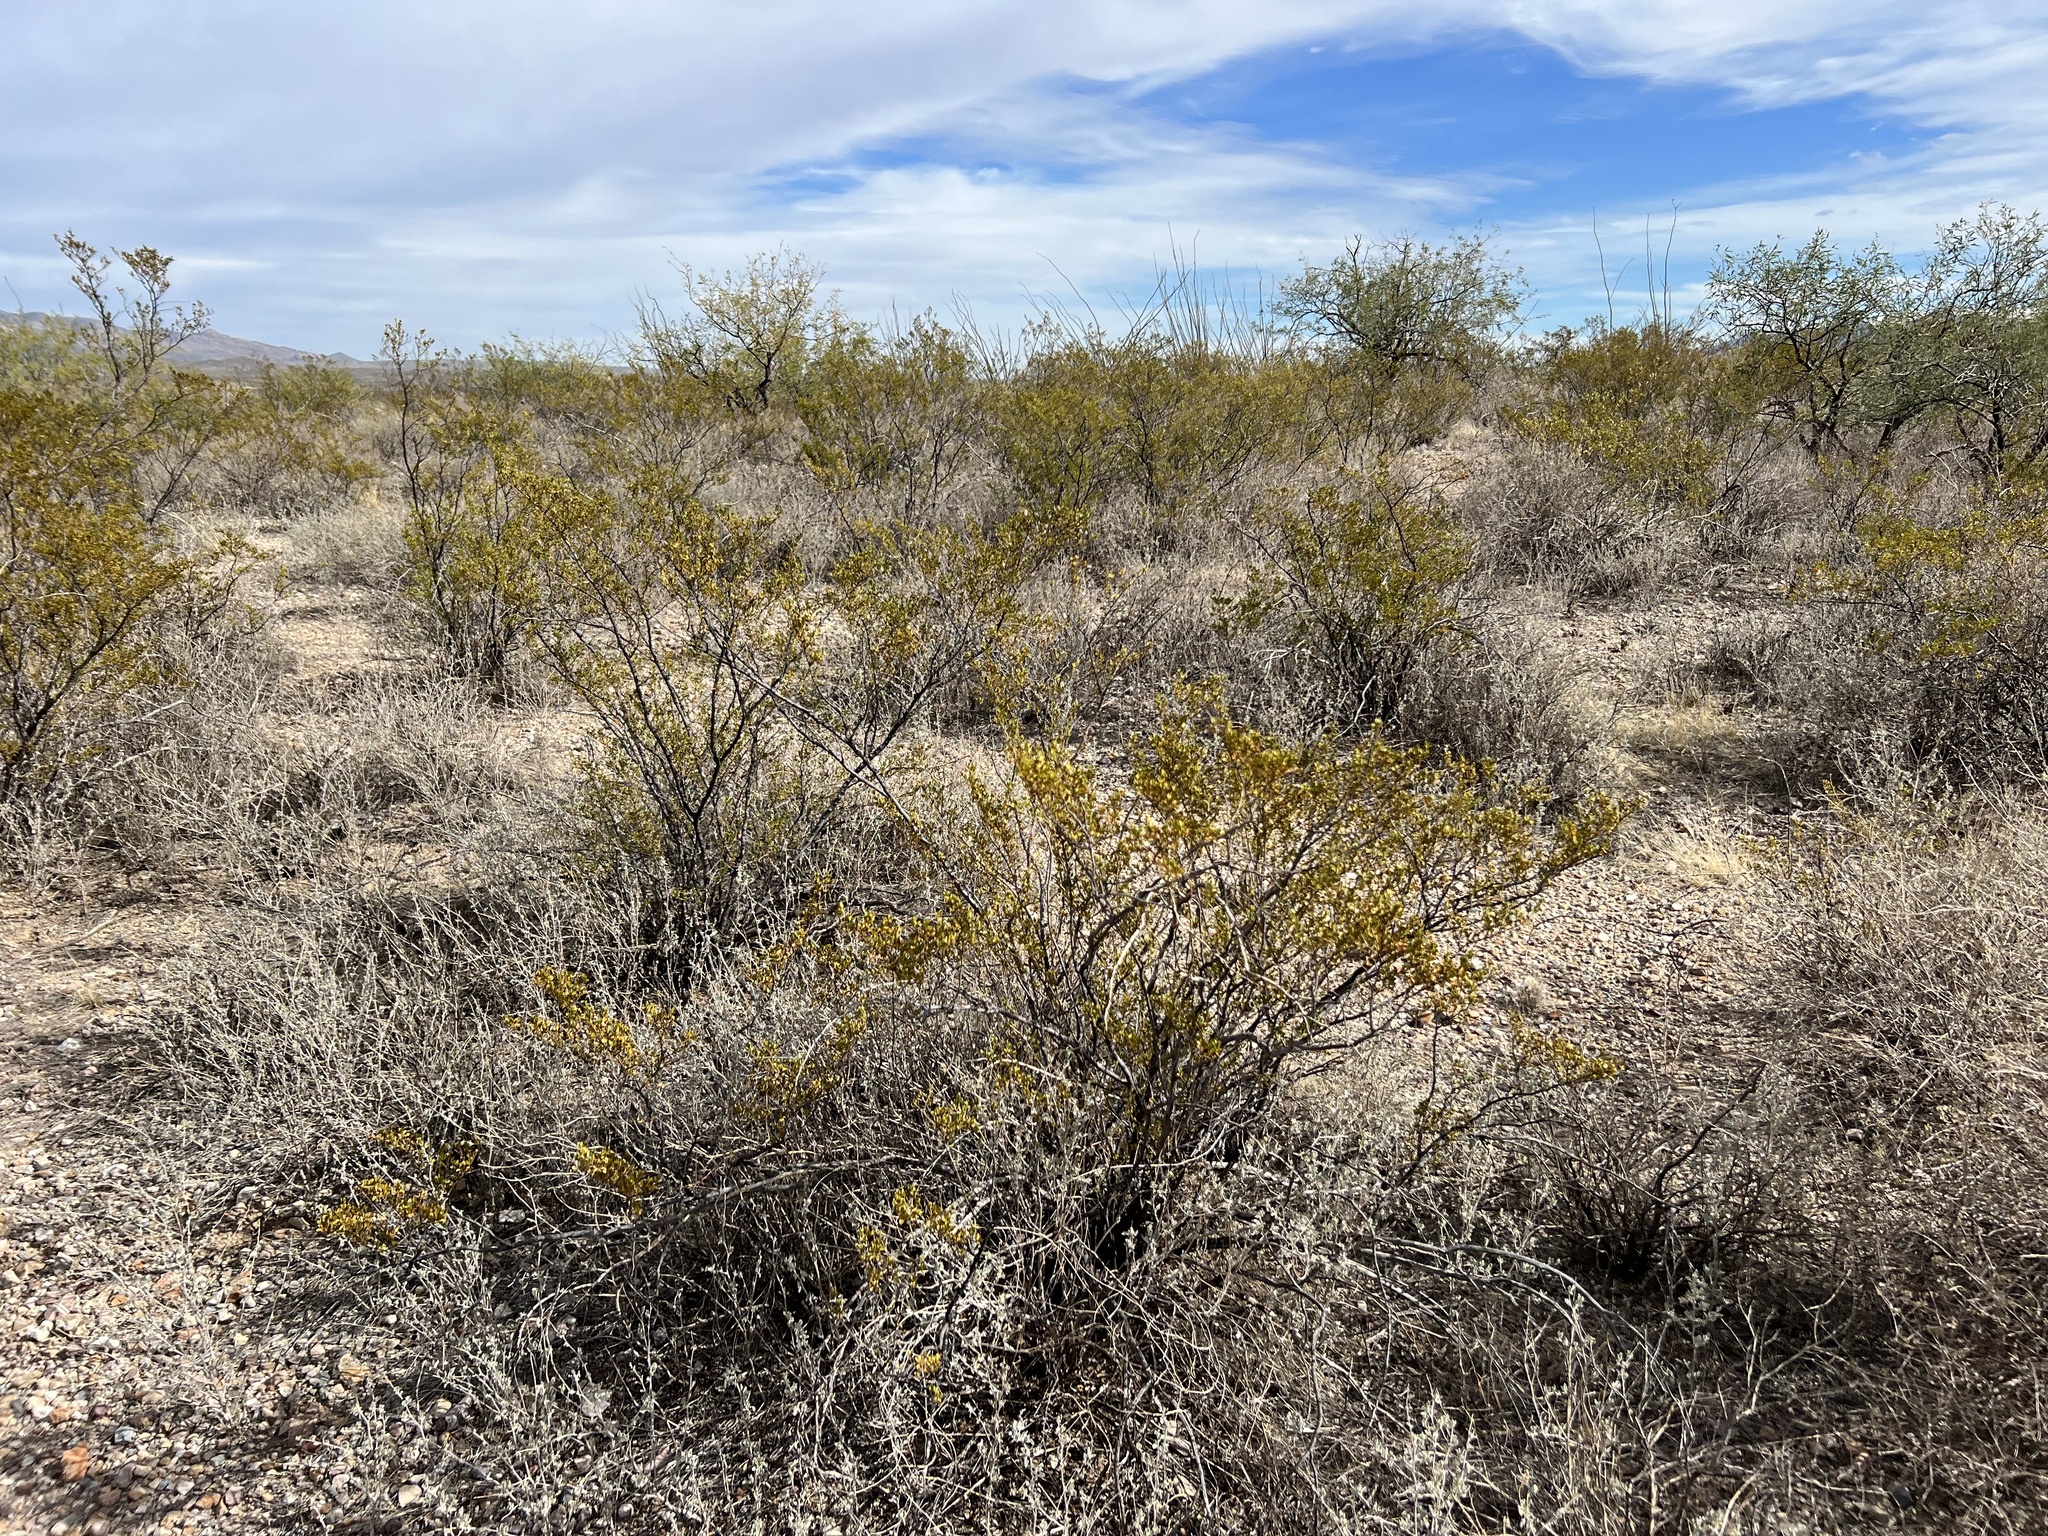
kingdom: Plantae
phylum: Tracheophyta
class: Magnoliopsida
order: Zygophyllales
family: Zygophyllaceae
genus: Larrea
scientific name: Larrea tridentata
